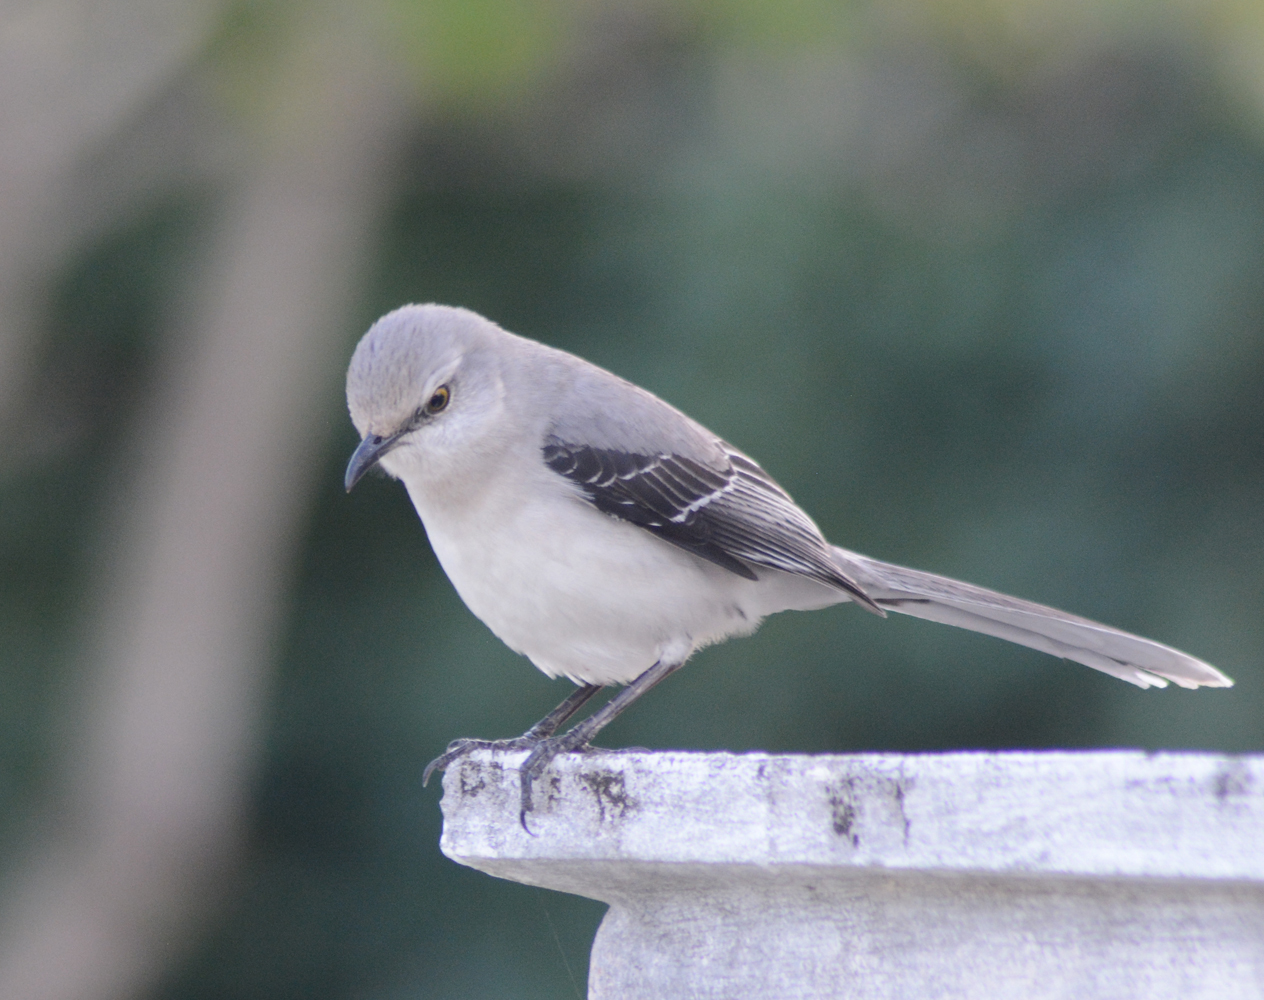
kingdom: Animalia
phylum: Chordata
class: Aves
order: Passeriformes
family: Mimidae
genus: Mimus
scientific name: Mimus gilvus
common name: Tropical mockingbird
